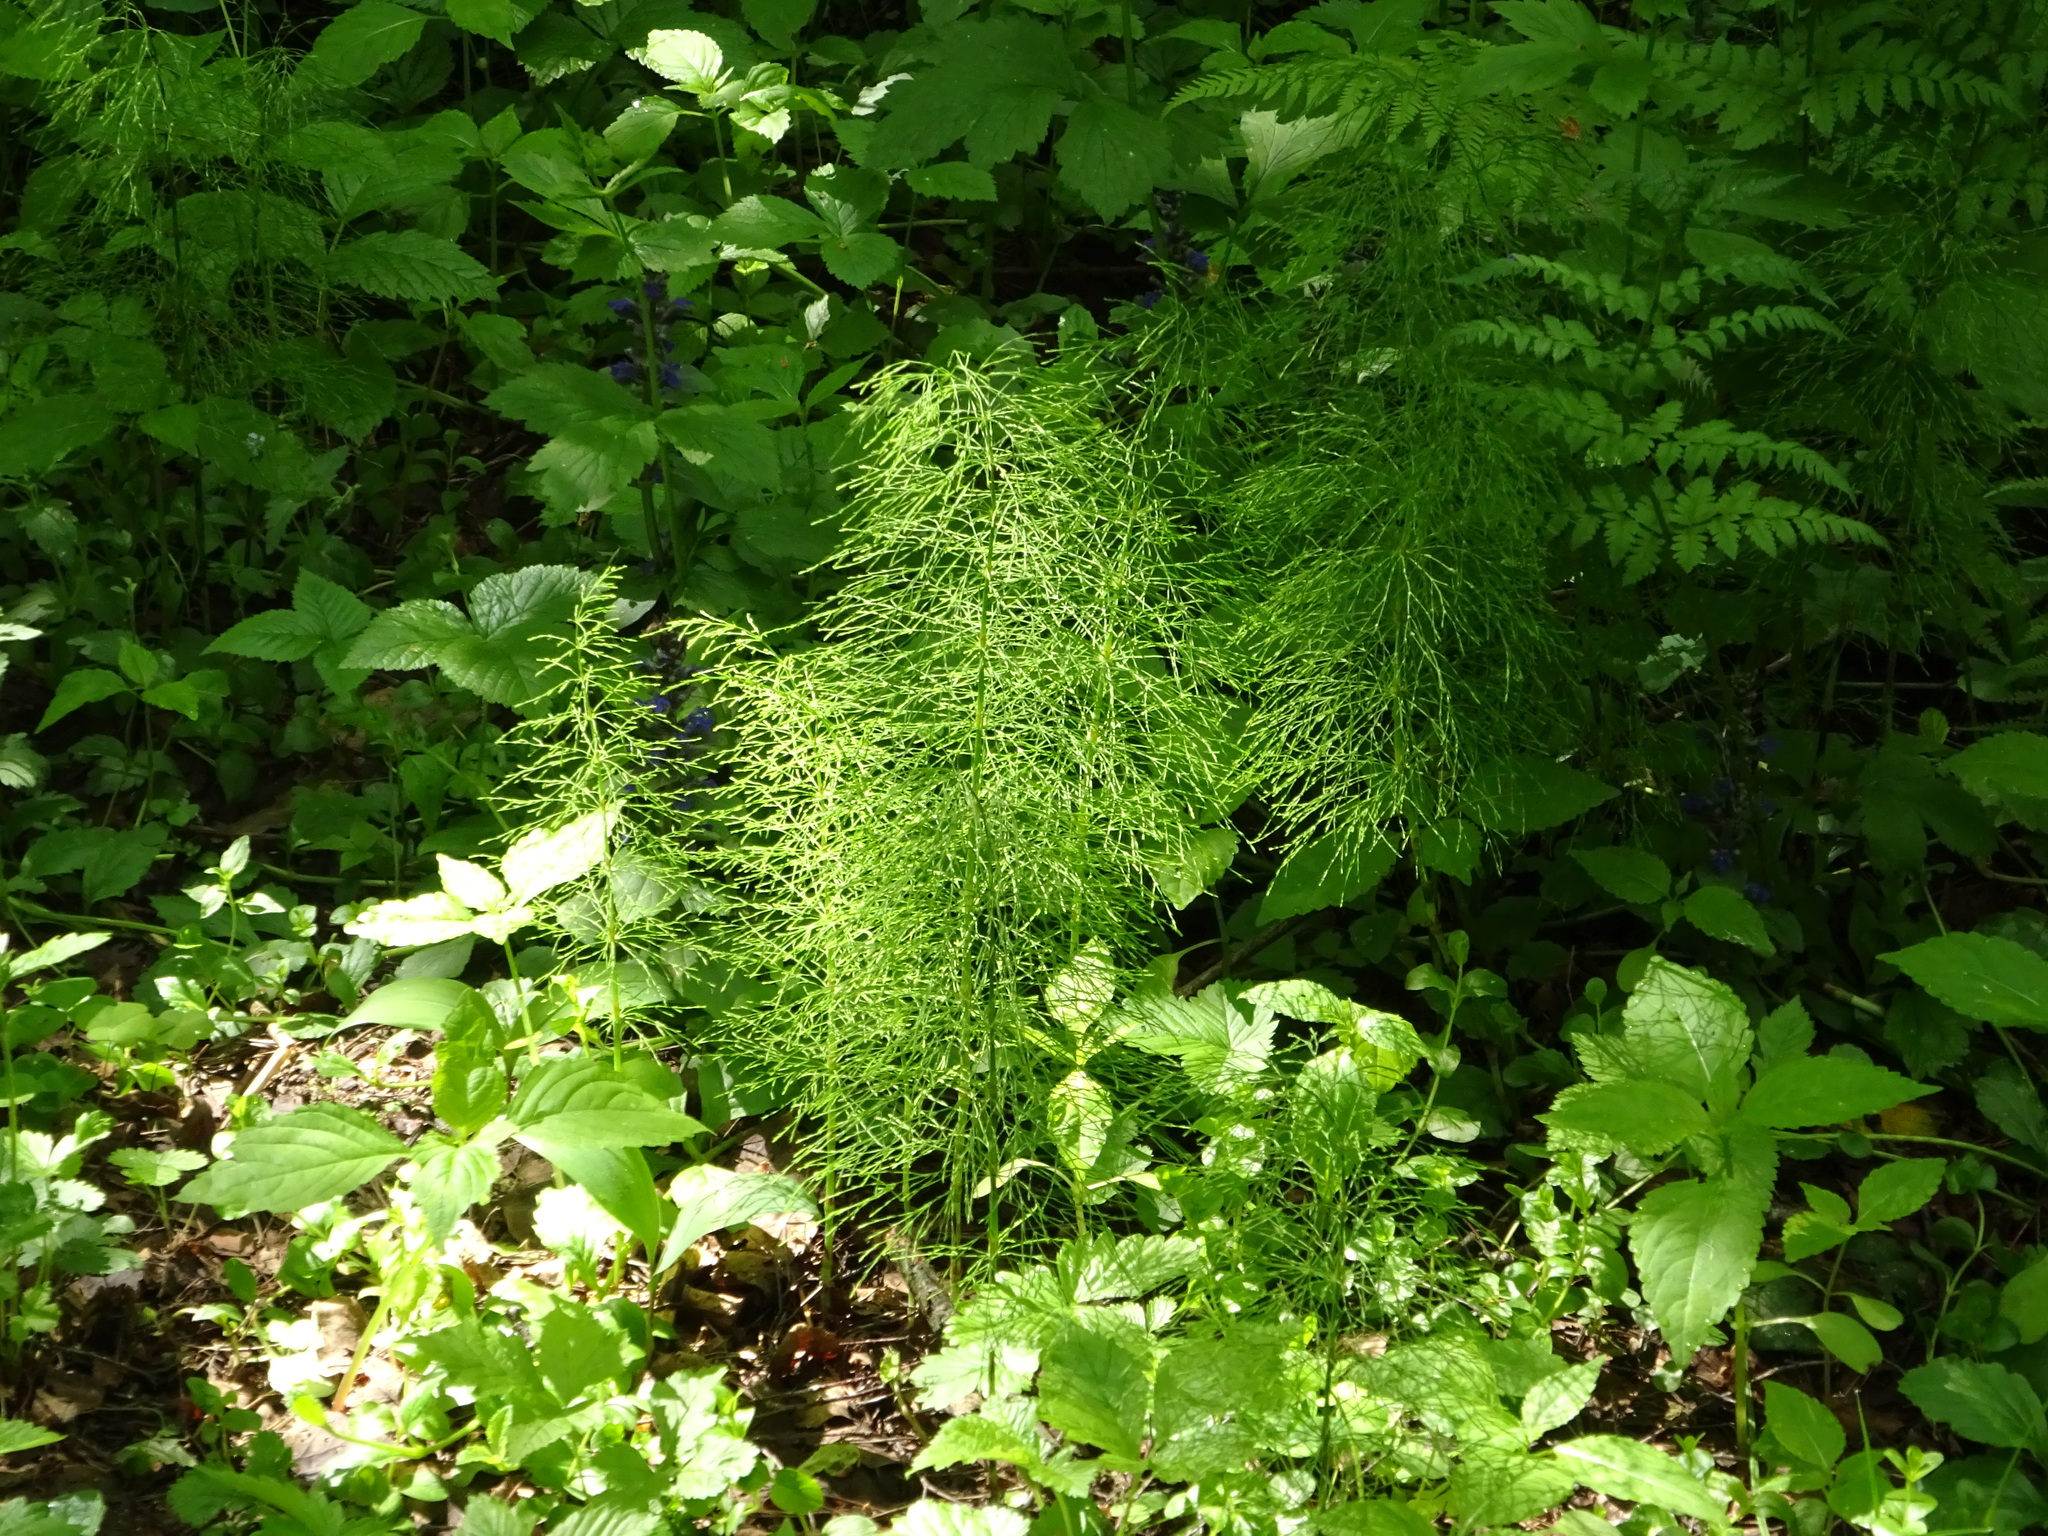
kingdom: Plantae
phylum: Tracheophyta
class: Polypodiopsida
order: Equisetales
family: Equisetaceae
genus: Equisetum
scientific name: Equisetum sylvaticum
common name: Wood horsetail
